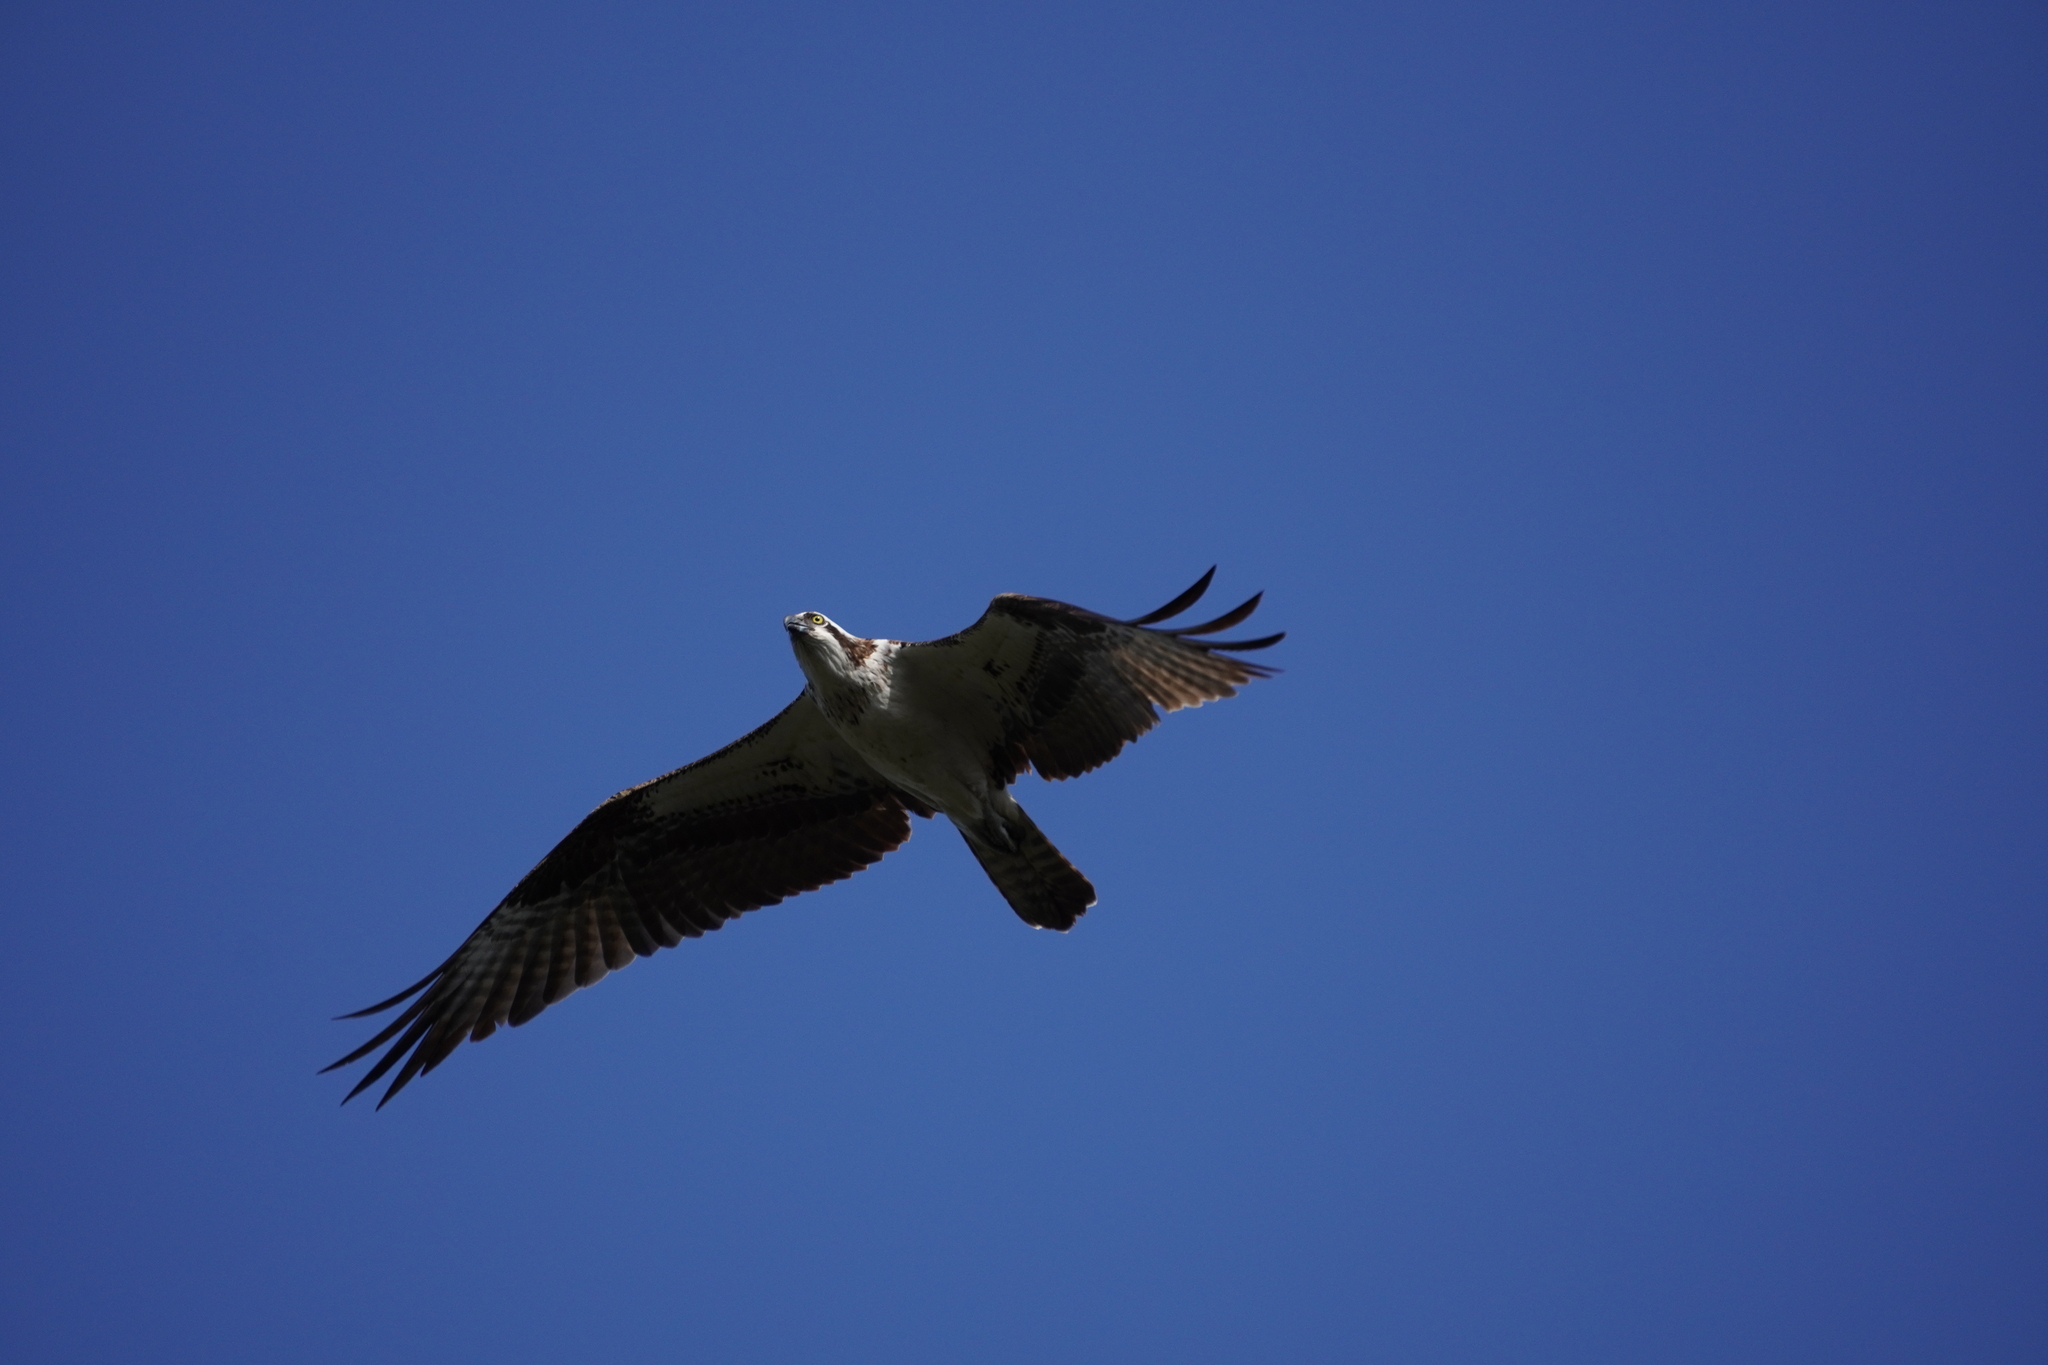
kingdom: Animalia
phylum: Chordata
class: Aves
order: Accipitriformes
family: Pandionidae
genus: Pandion
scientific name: Pandion haliaetus
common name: Osprey
